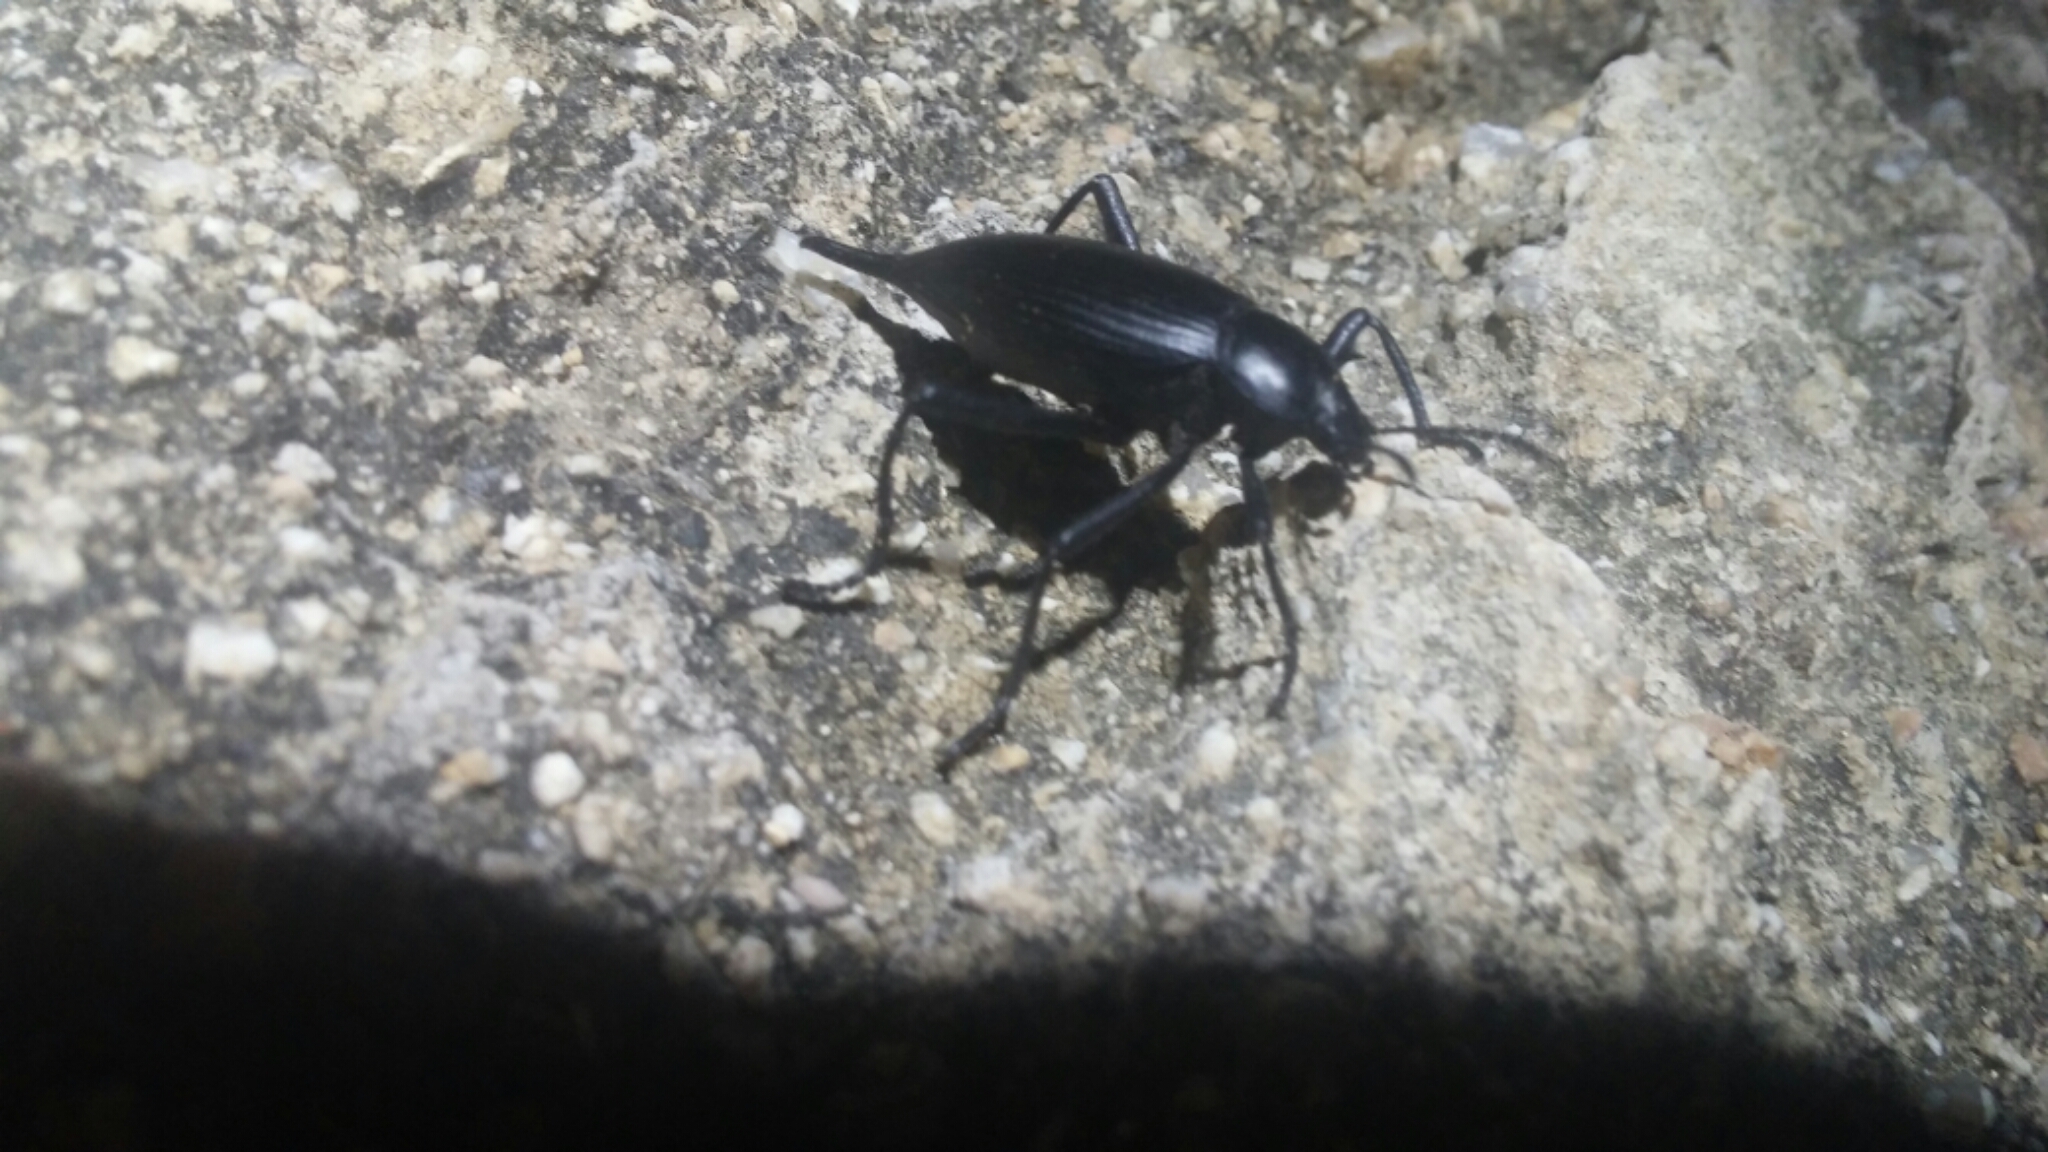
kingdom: Animalia
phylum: Arthropoda
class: Insecta
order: Coleoptera
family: Tenebrionidae
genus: Eleodes
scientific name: Eleodes eschscholtzii
